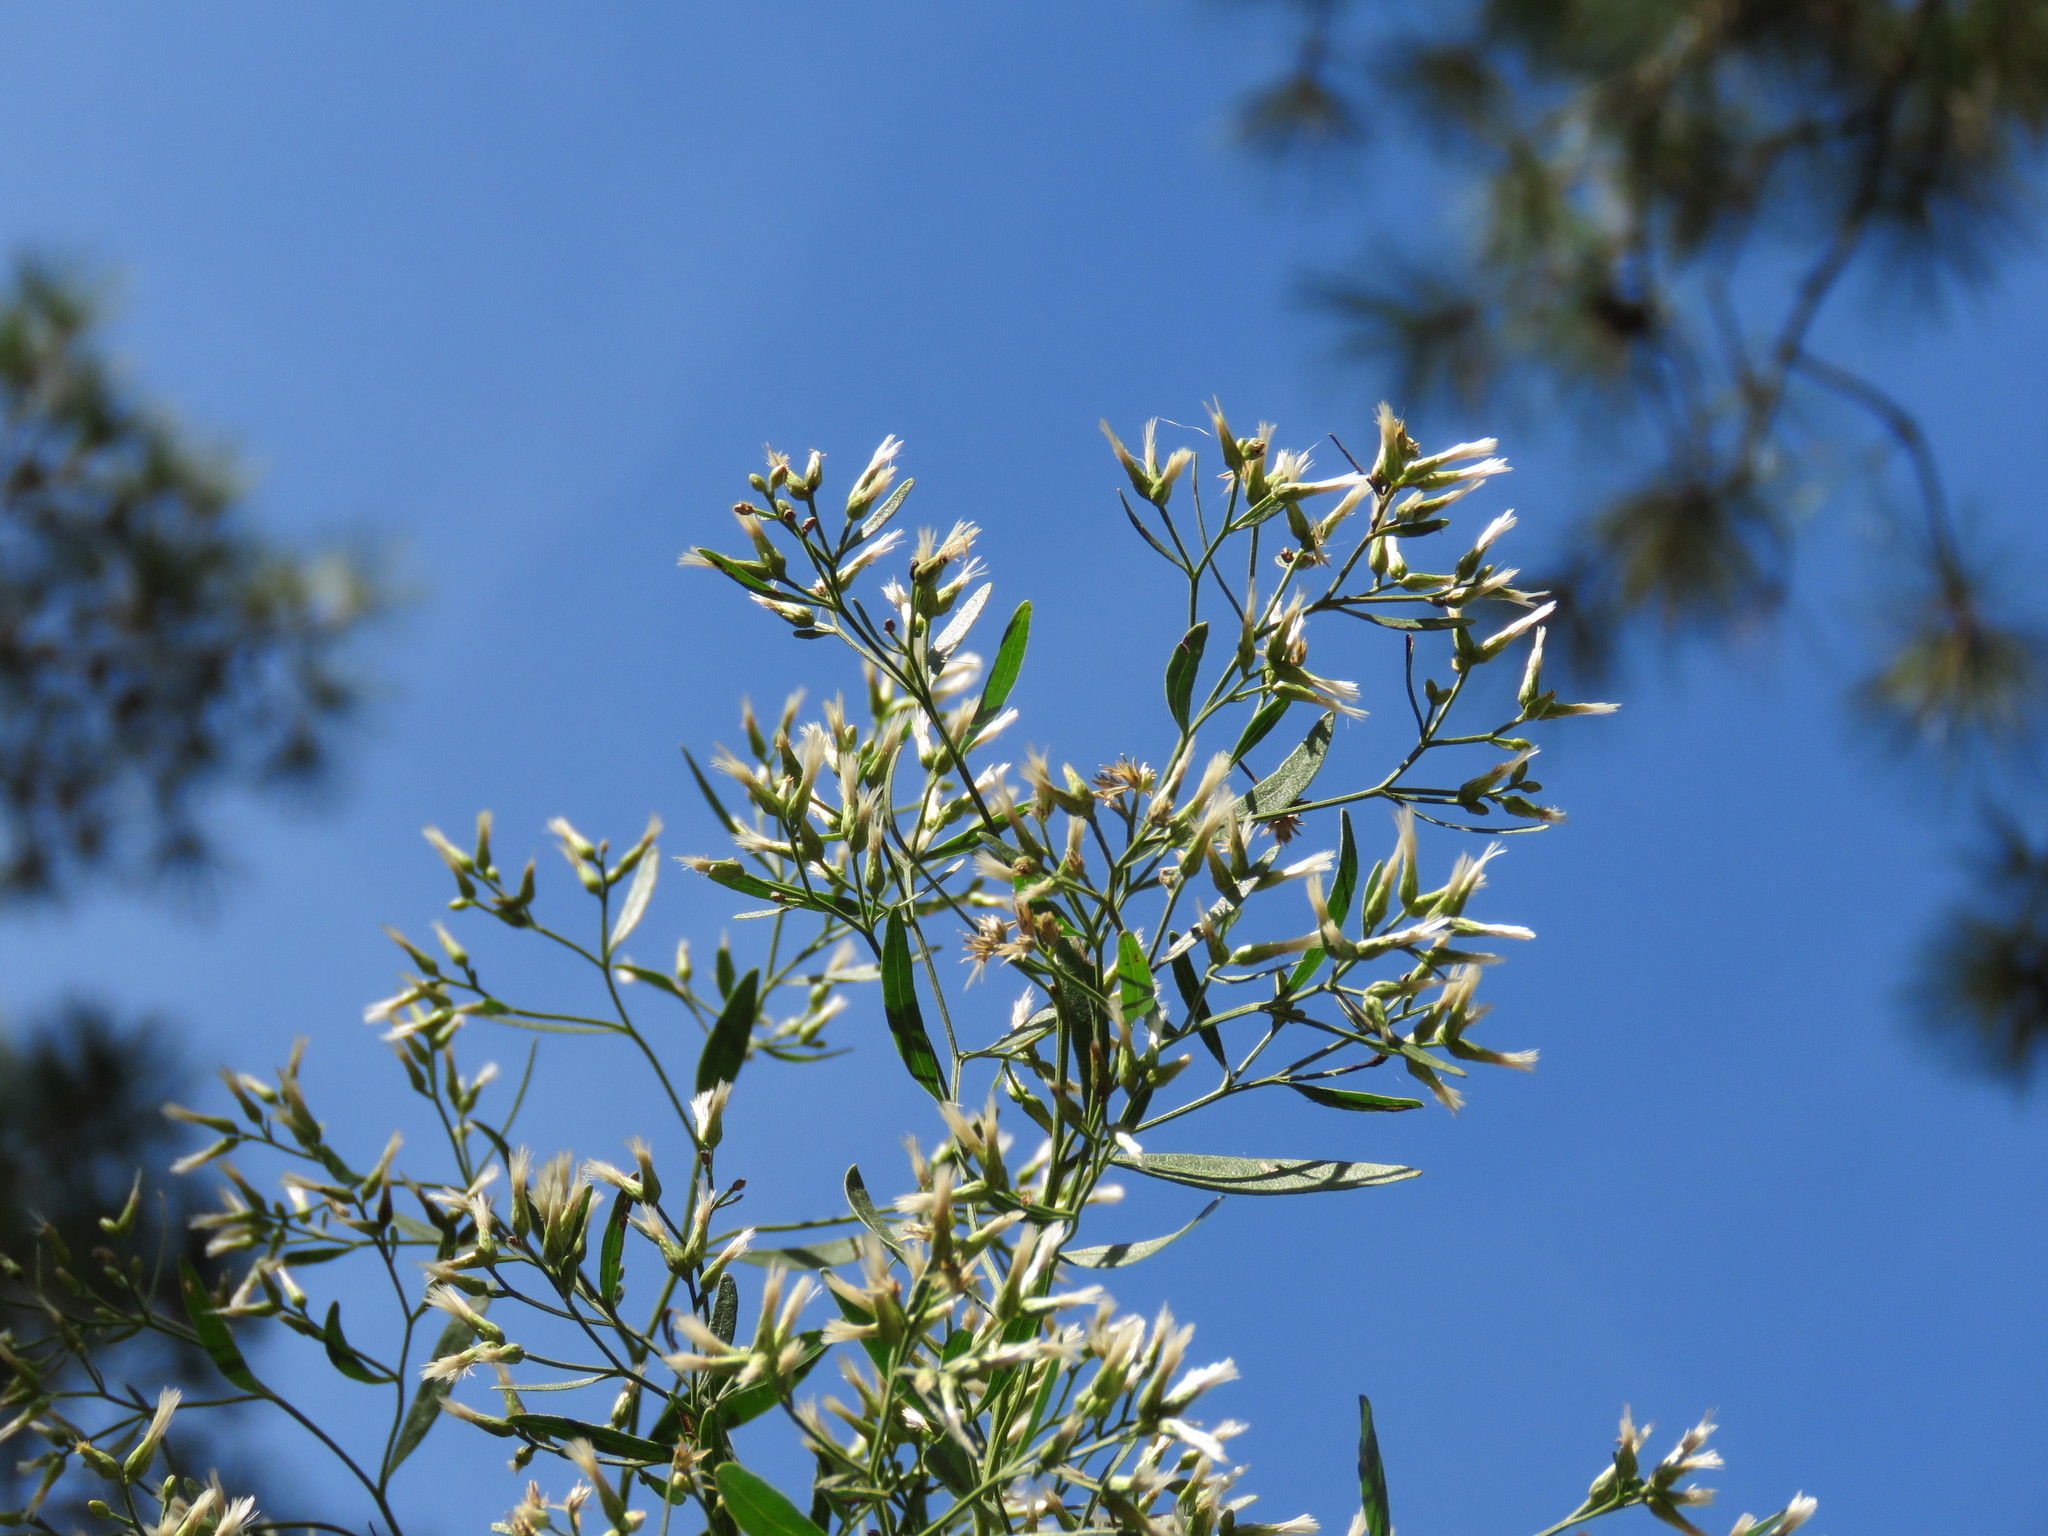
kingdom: Plantae
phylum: Tracheophyta
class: Magnoliopsida
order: Asterales
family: Asteraceae
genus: Baccharis
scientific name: Baccharis halimifolia
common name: Eastern baccharis
